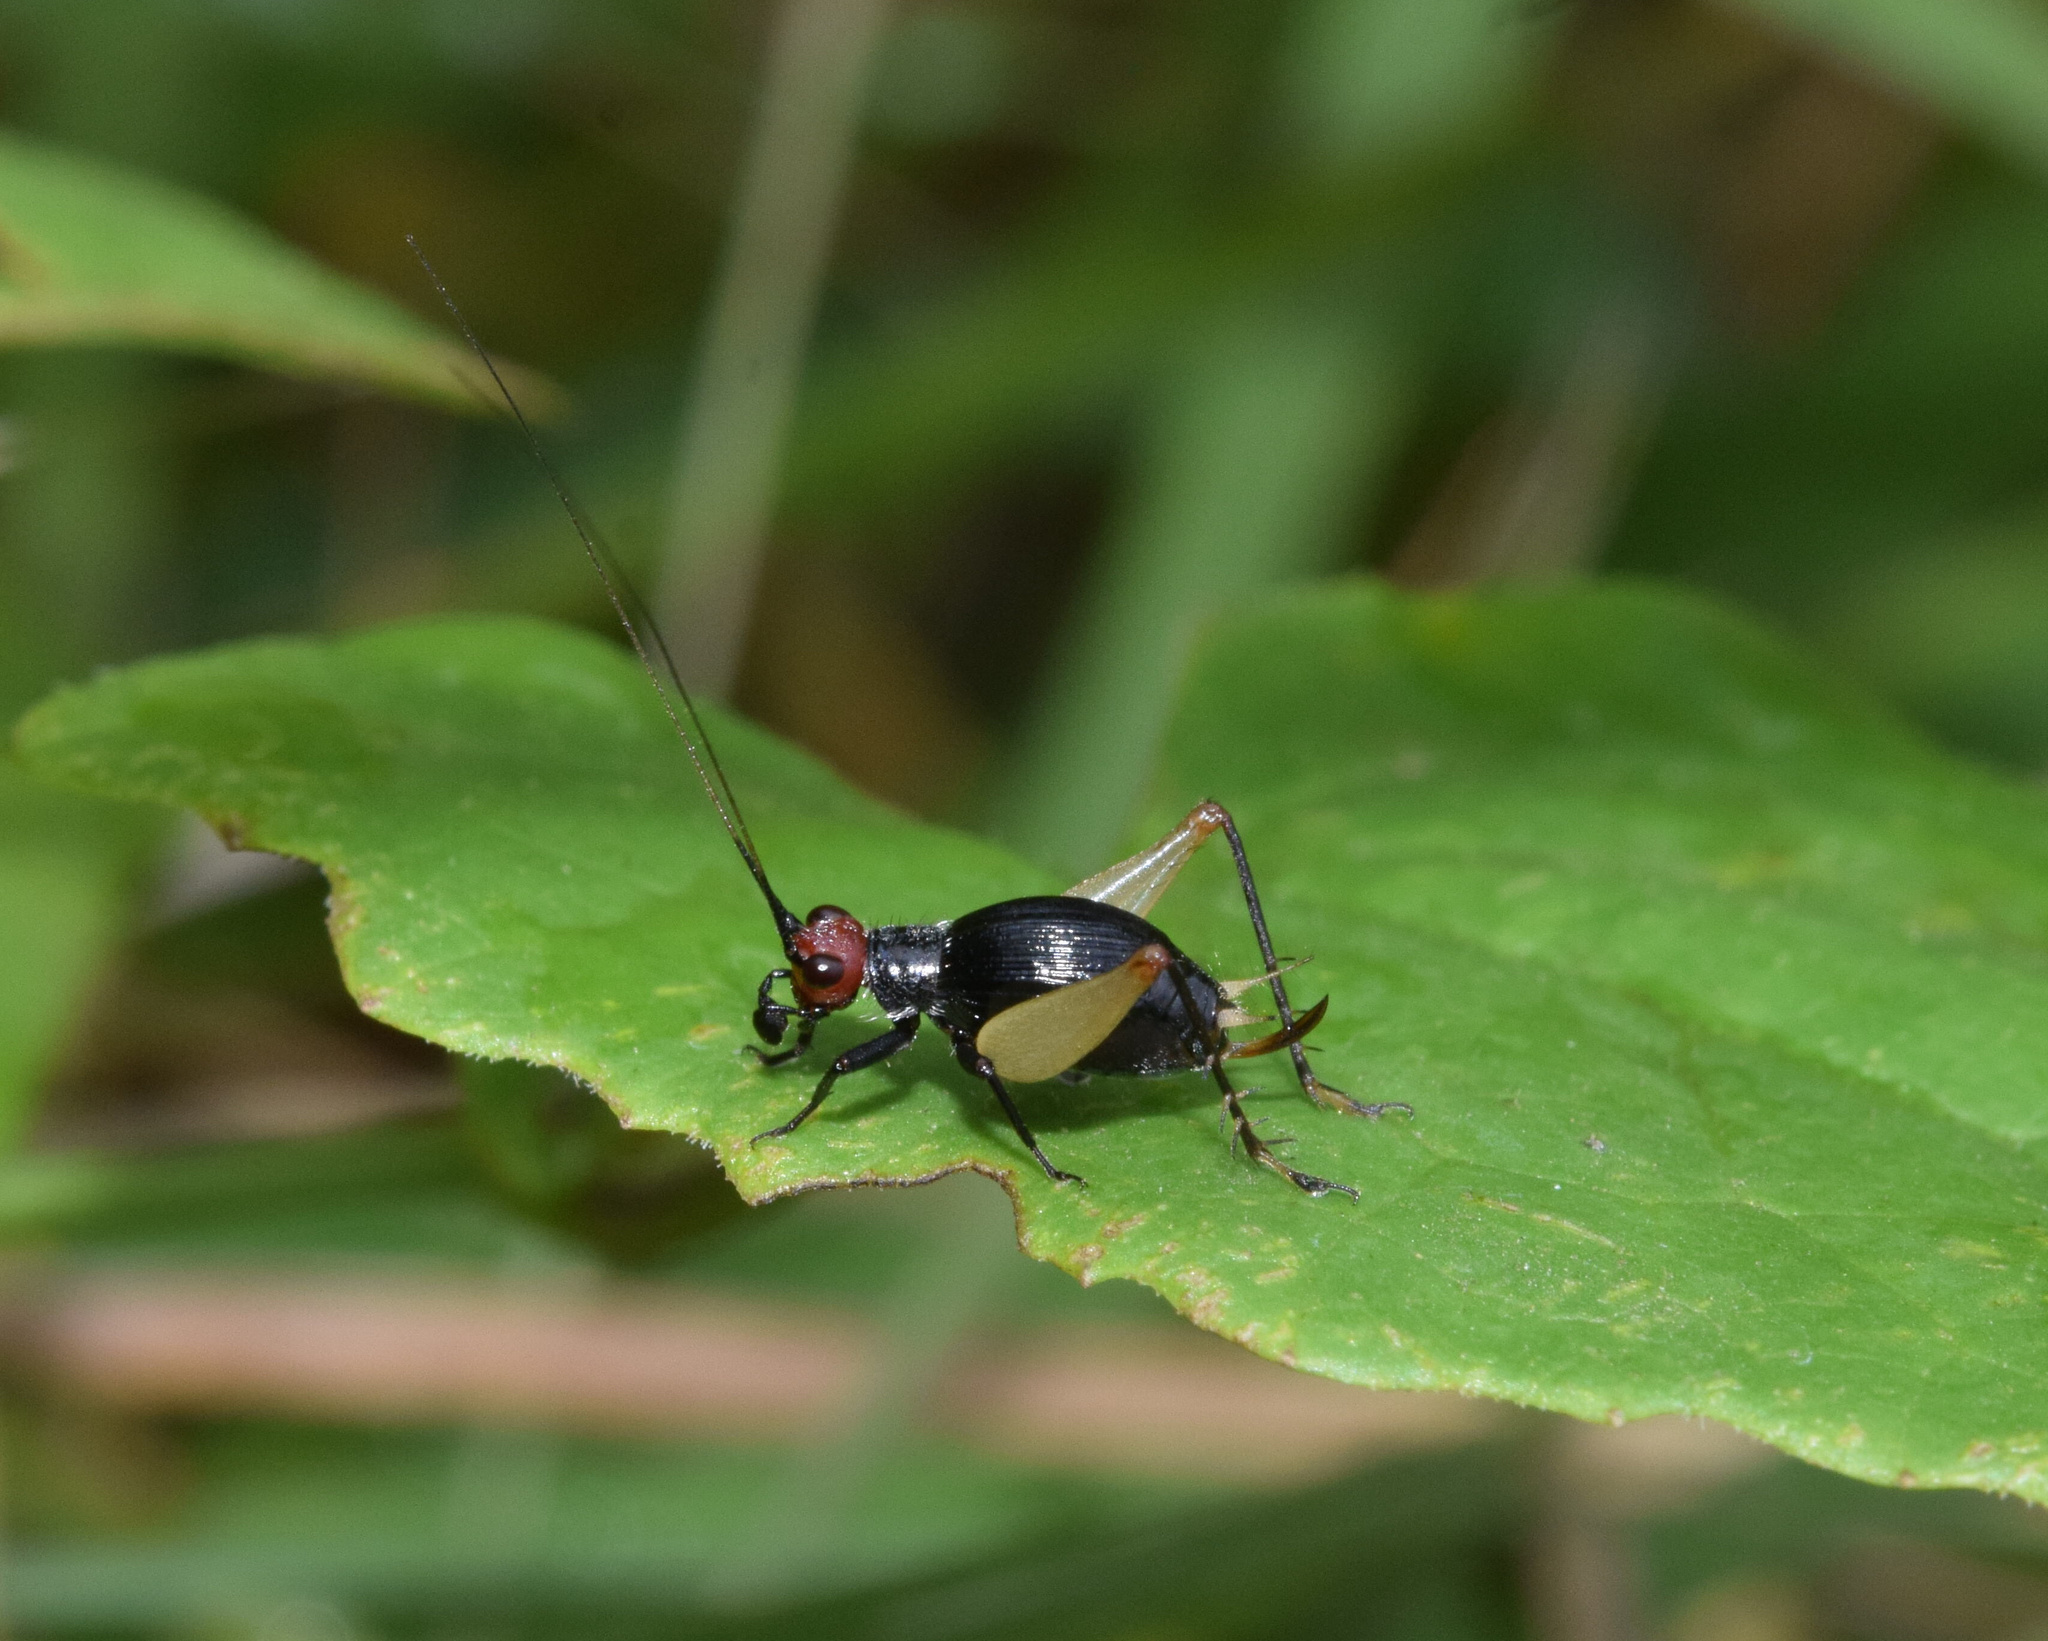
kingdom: Animalia
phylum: Arthropoda
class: Insecta
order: Orthoptera
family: Trigonidiidae
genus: Trigonidium
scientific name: Trigonidium erythrocephalum
